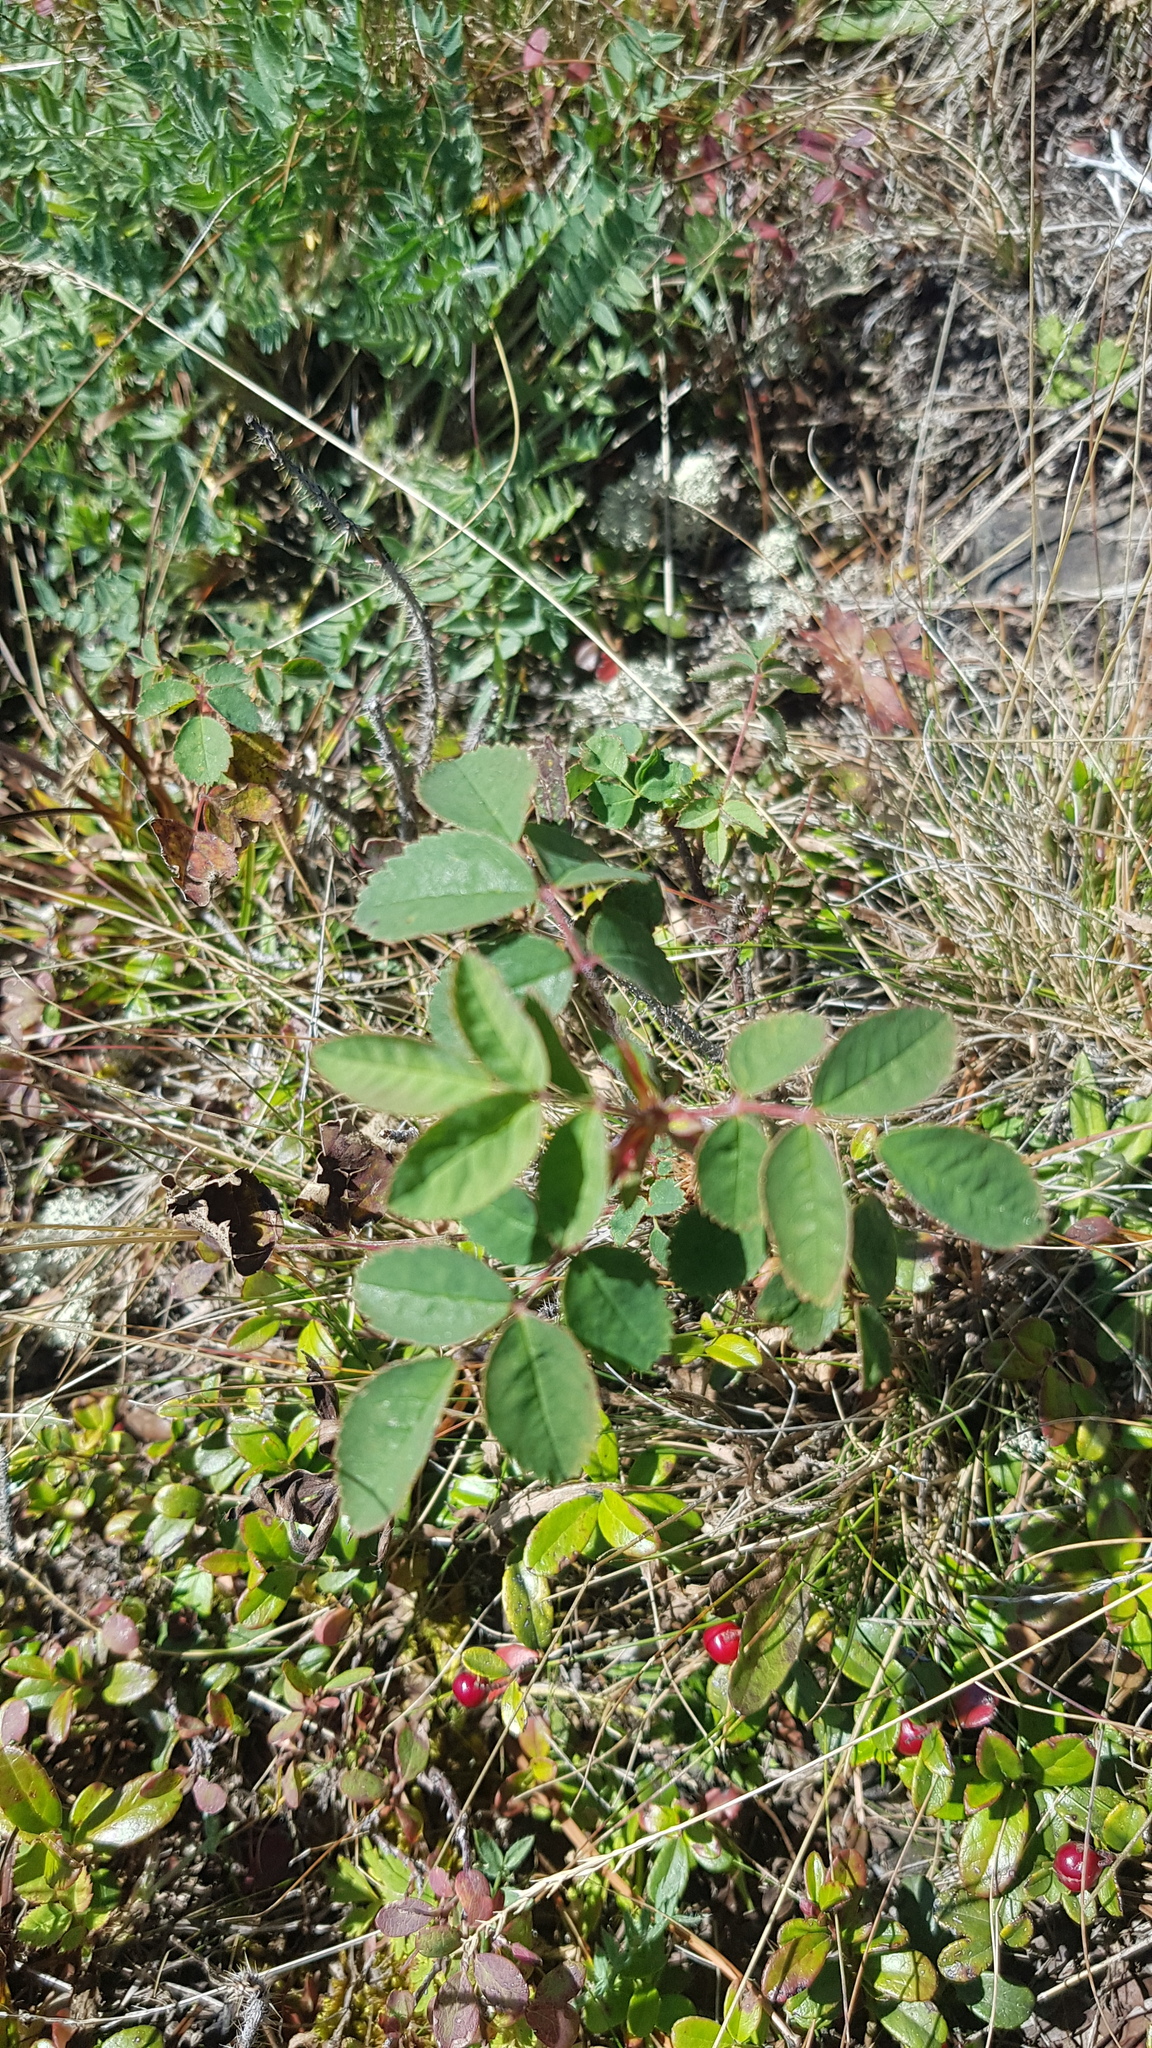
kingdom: Plantae
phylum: Tracheophyta
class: Magnoliopsida
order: Rosales
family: Rosaceae
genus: Rosa
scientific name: Rosa acicularis
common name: Prickly rose
